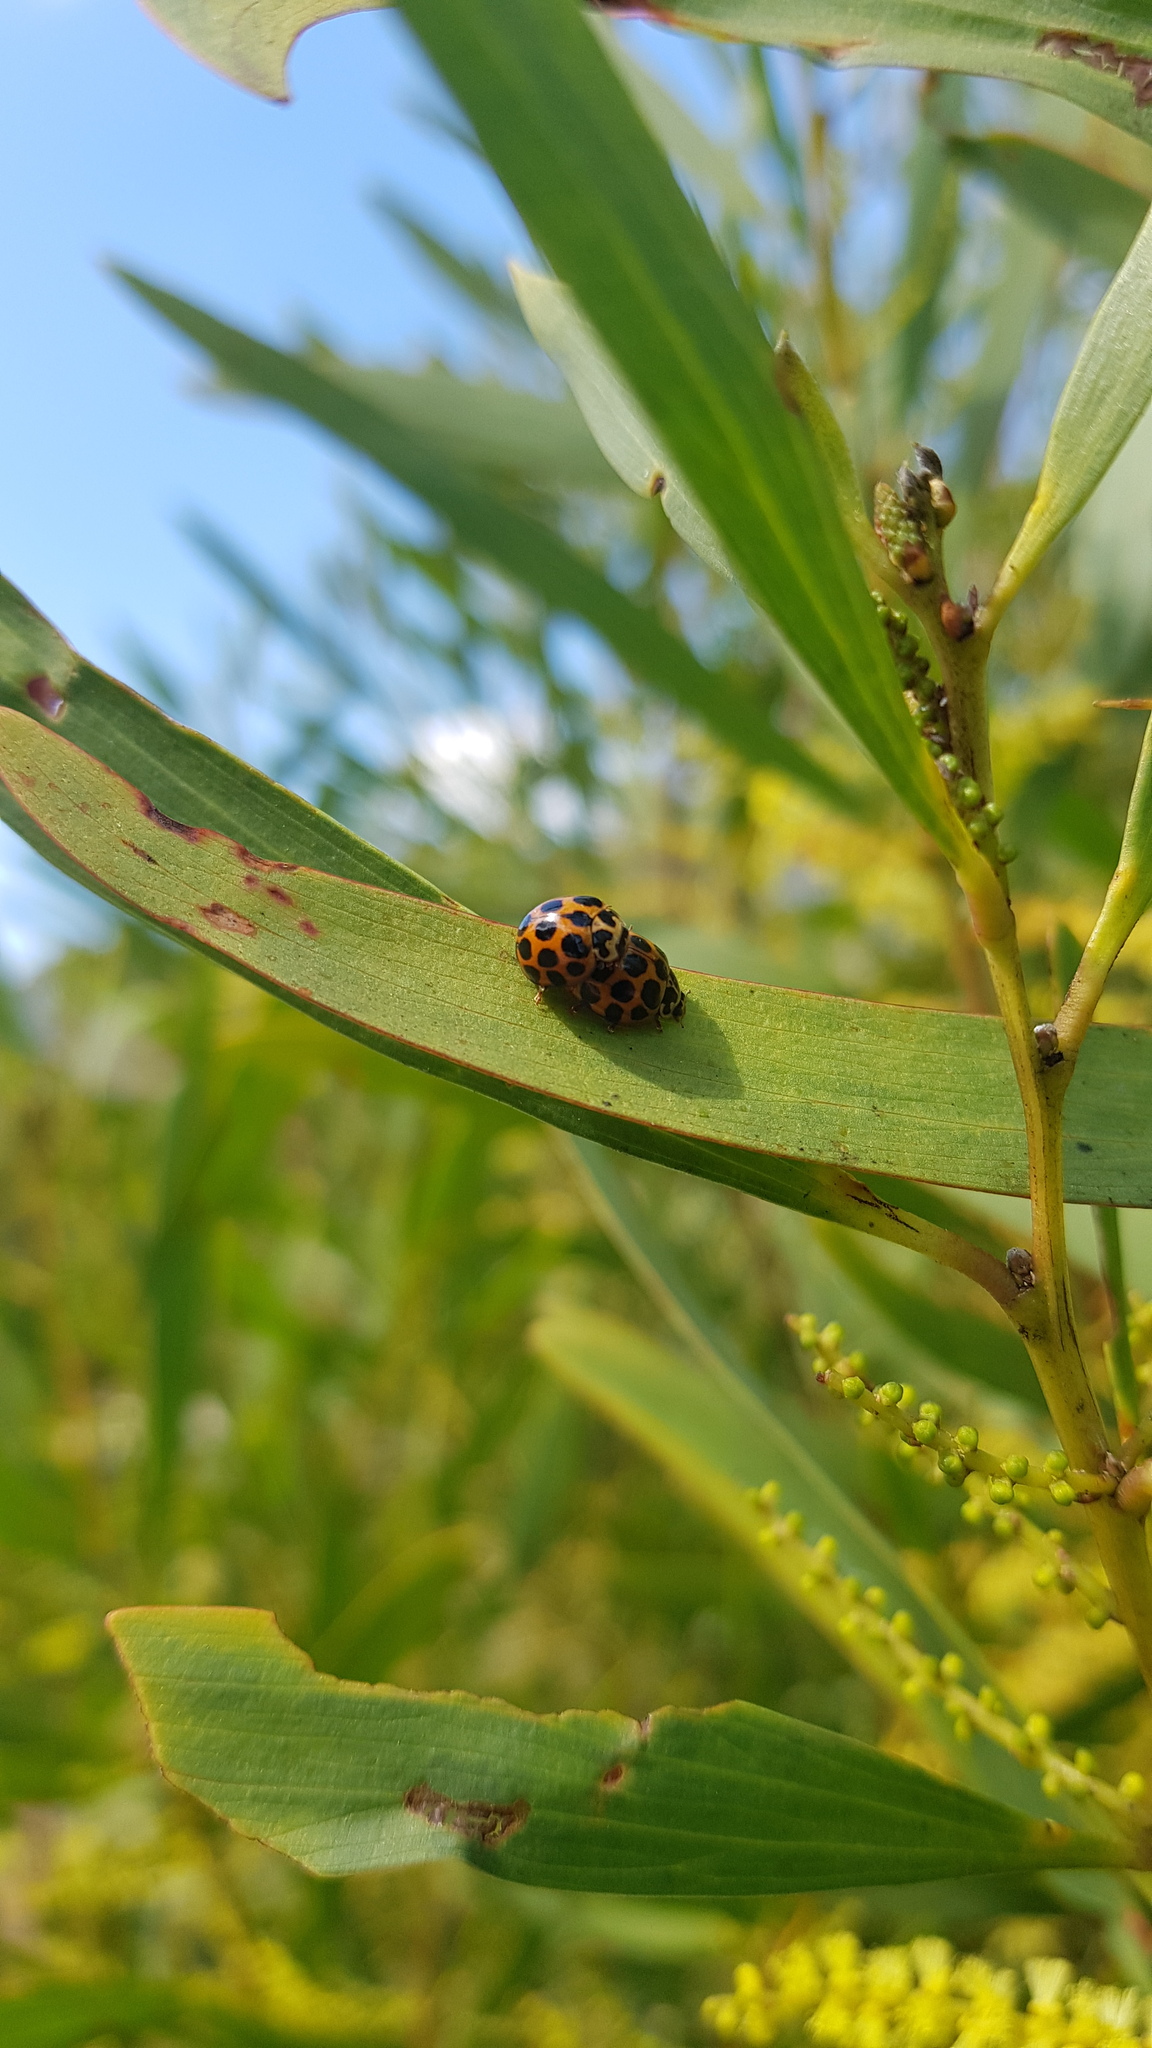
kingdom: Animalia
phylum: Arthropoda
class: Insecta
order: Coleoptera
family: Coccinellidae
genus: Harmonia
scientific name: Harmonia conformis
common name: Common spotted ladybird beetle
